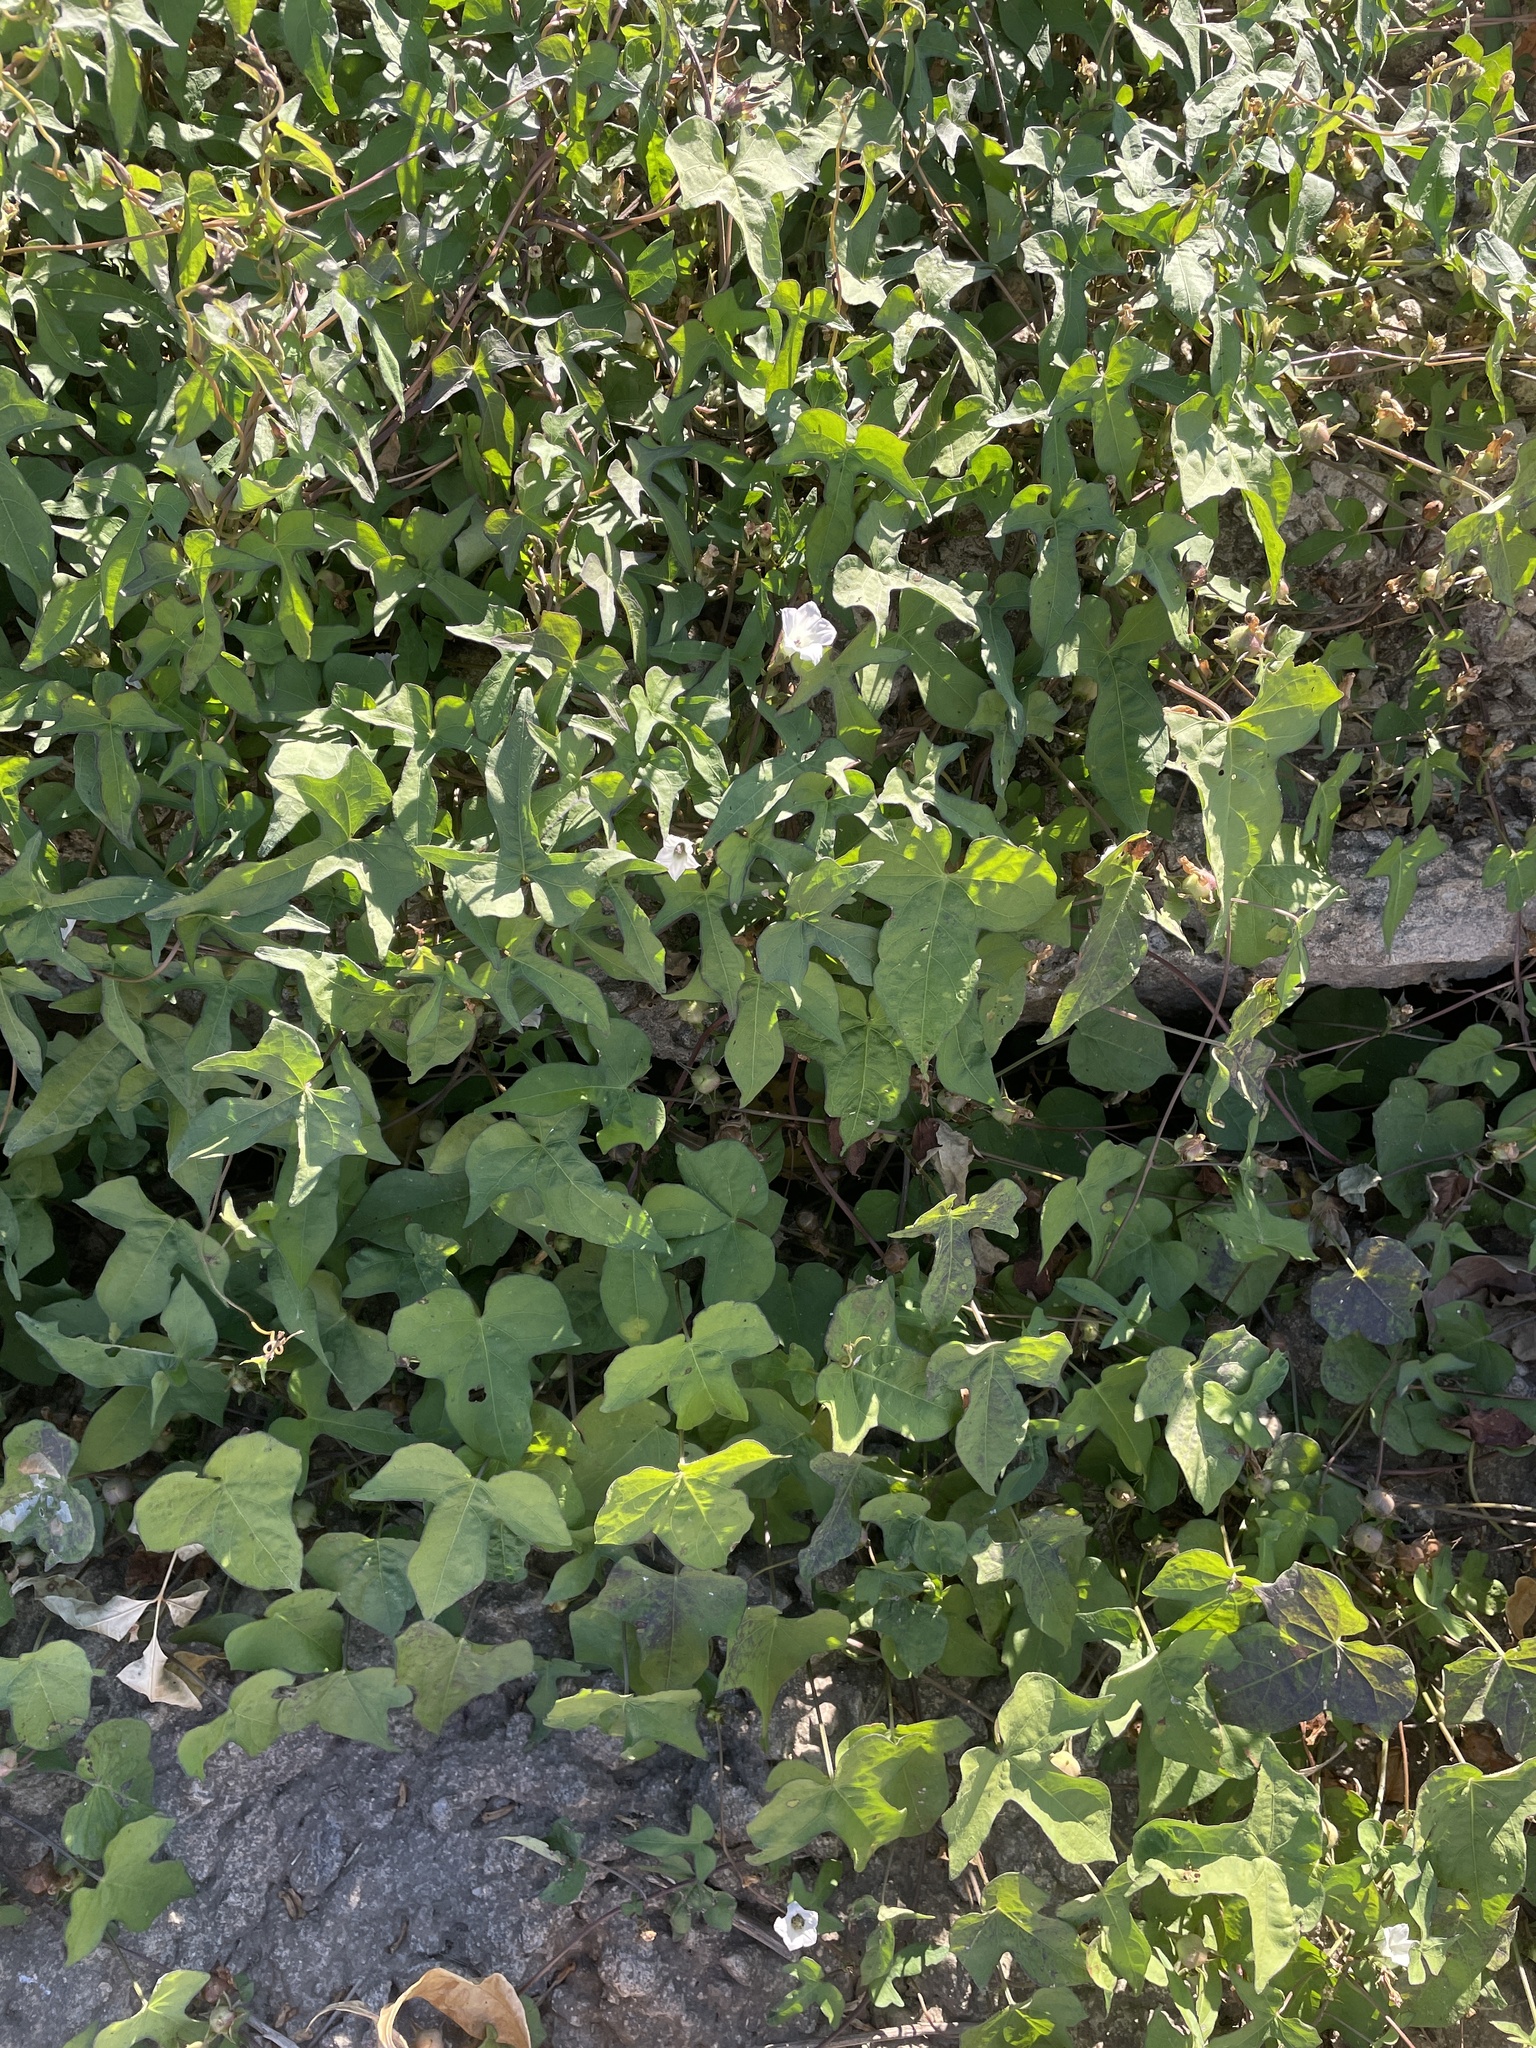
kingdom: Plantae
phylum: Tracheophyta
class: Magnoliopsida
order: Solanales
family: Convolvulaceae
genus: Ipomoea
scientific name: Ipomoea lacunosa
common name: White morning-glory
